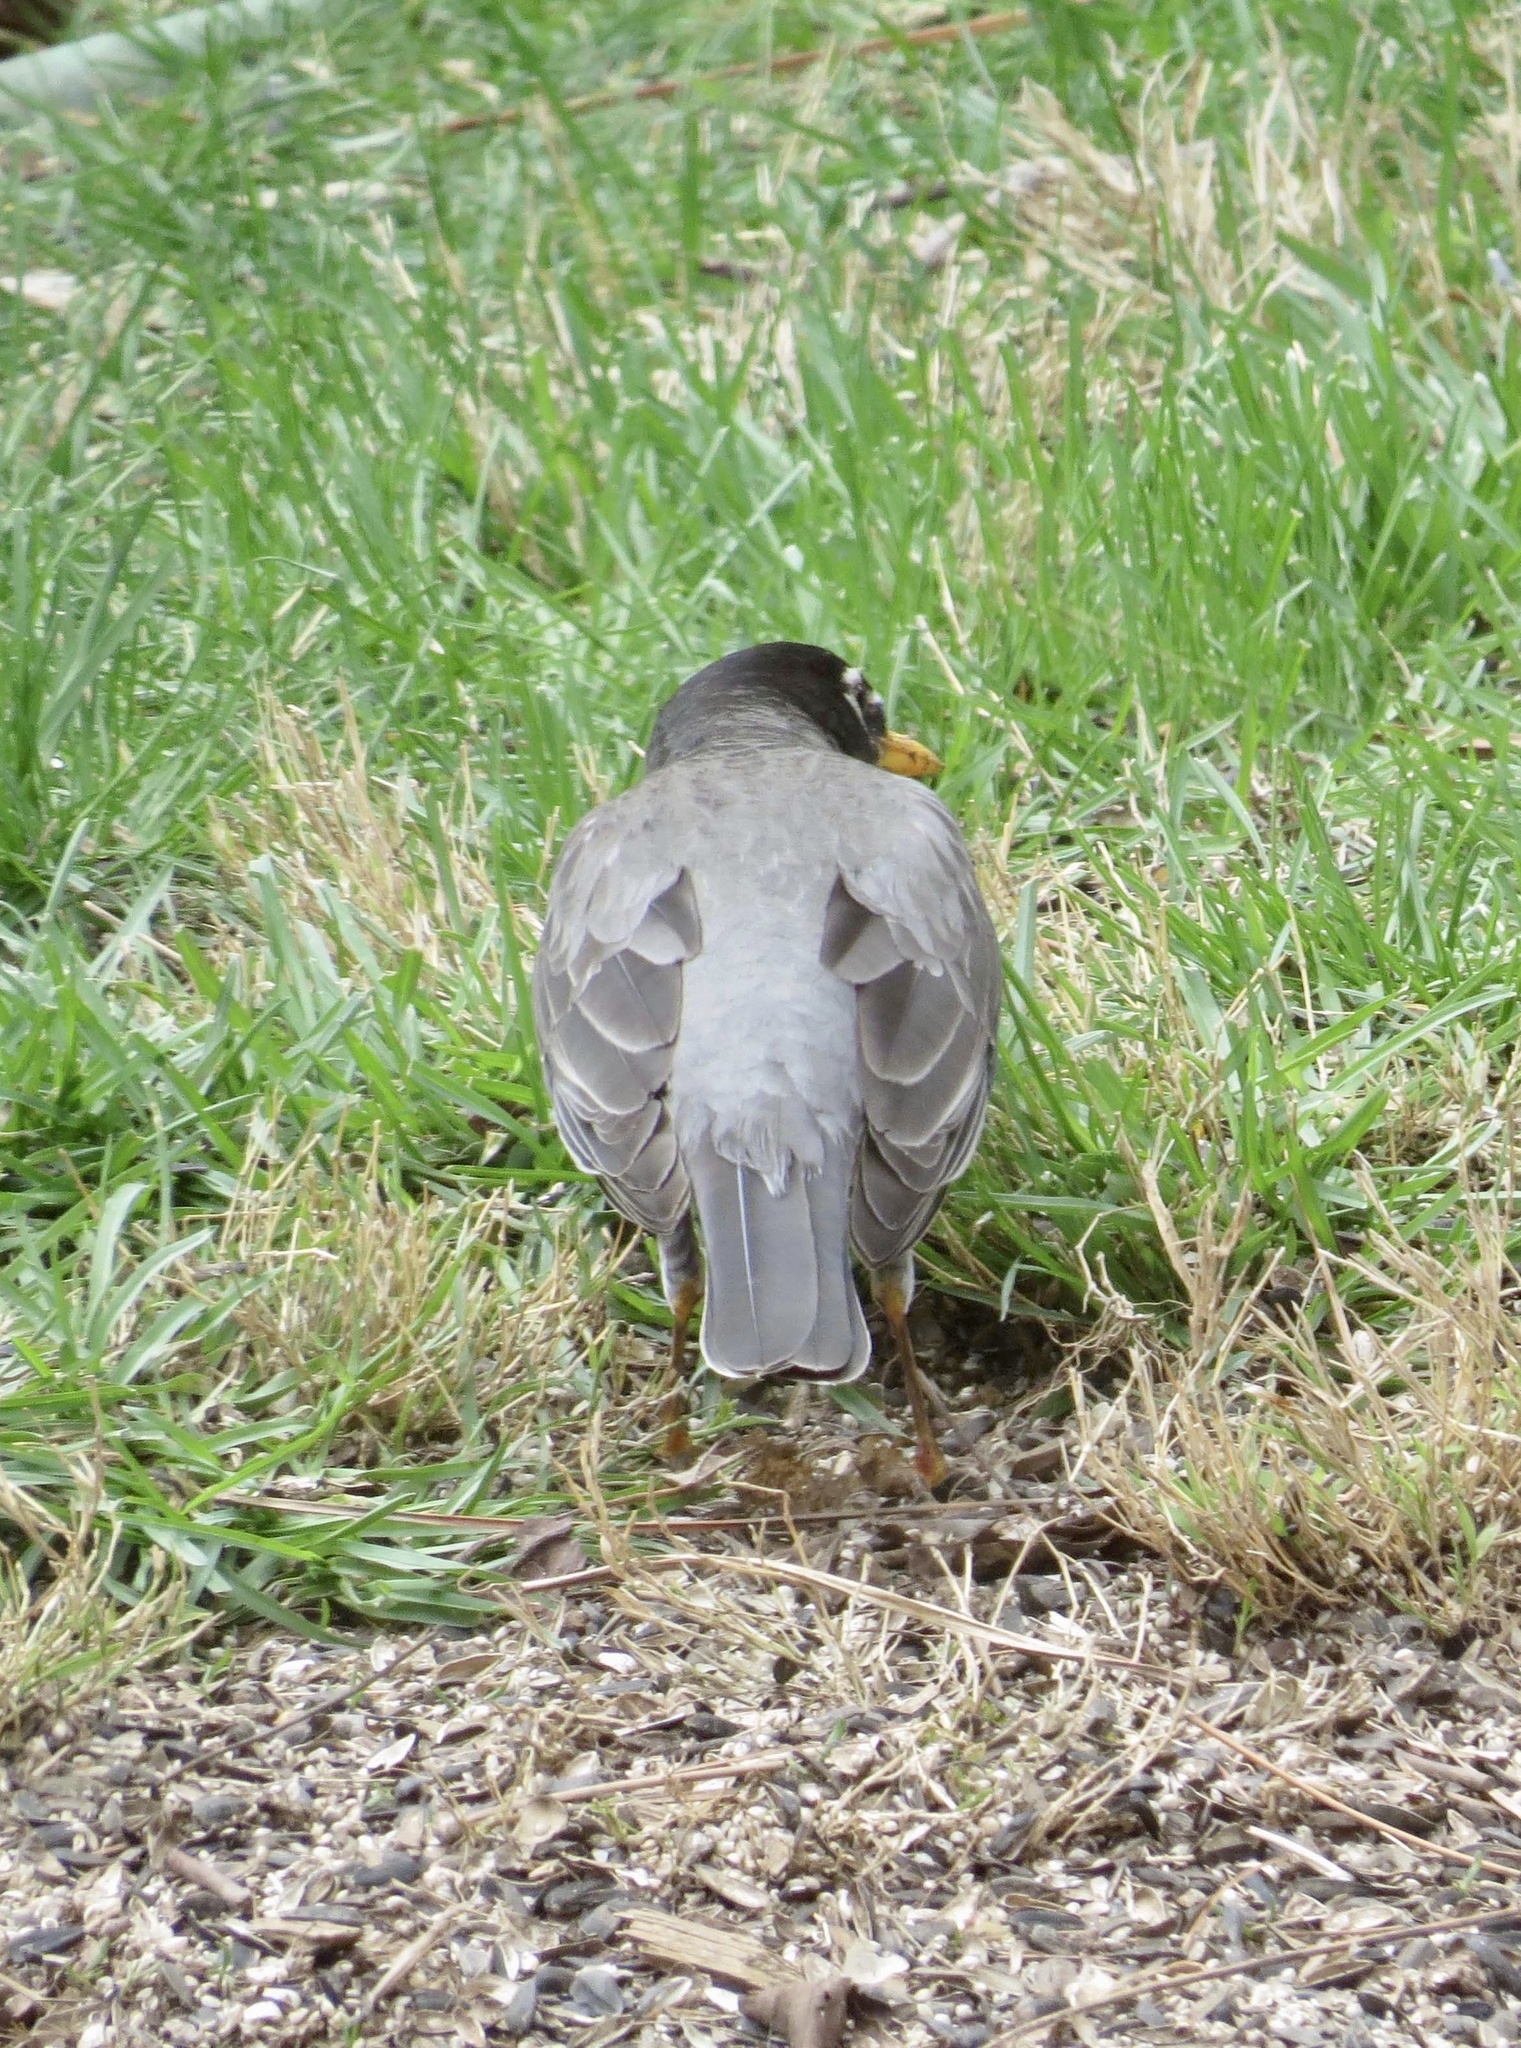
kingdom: Animalia
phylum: Chordata
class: Aves
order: Passeriformes
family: Turdidae
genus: Turdus
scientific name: Turdus migratorius
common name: American robin
